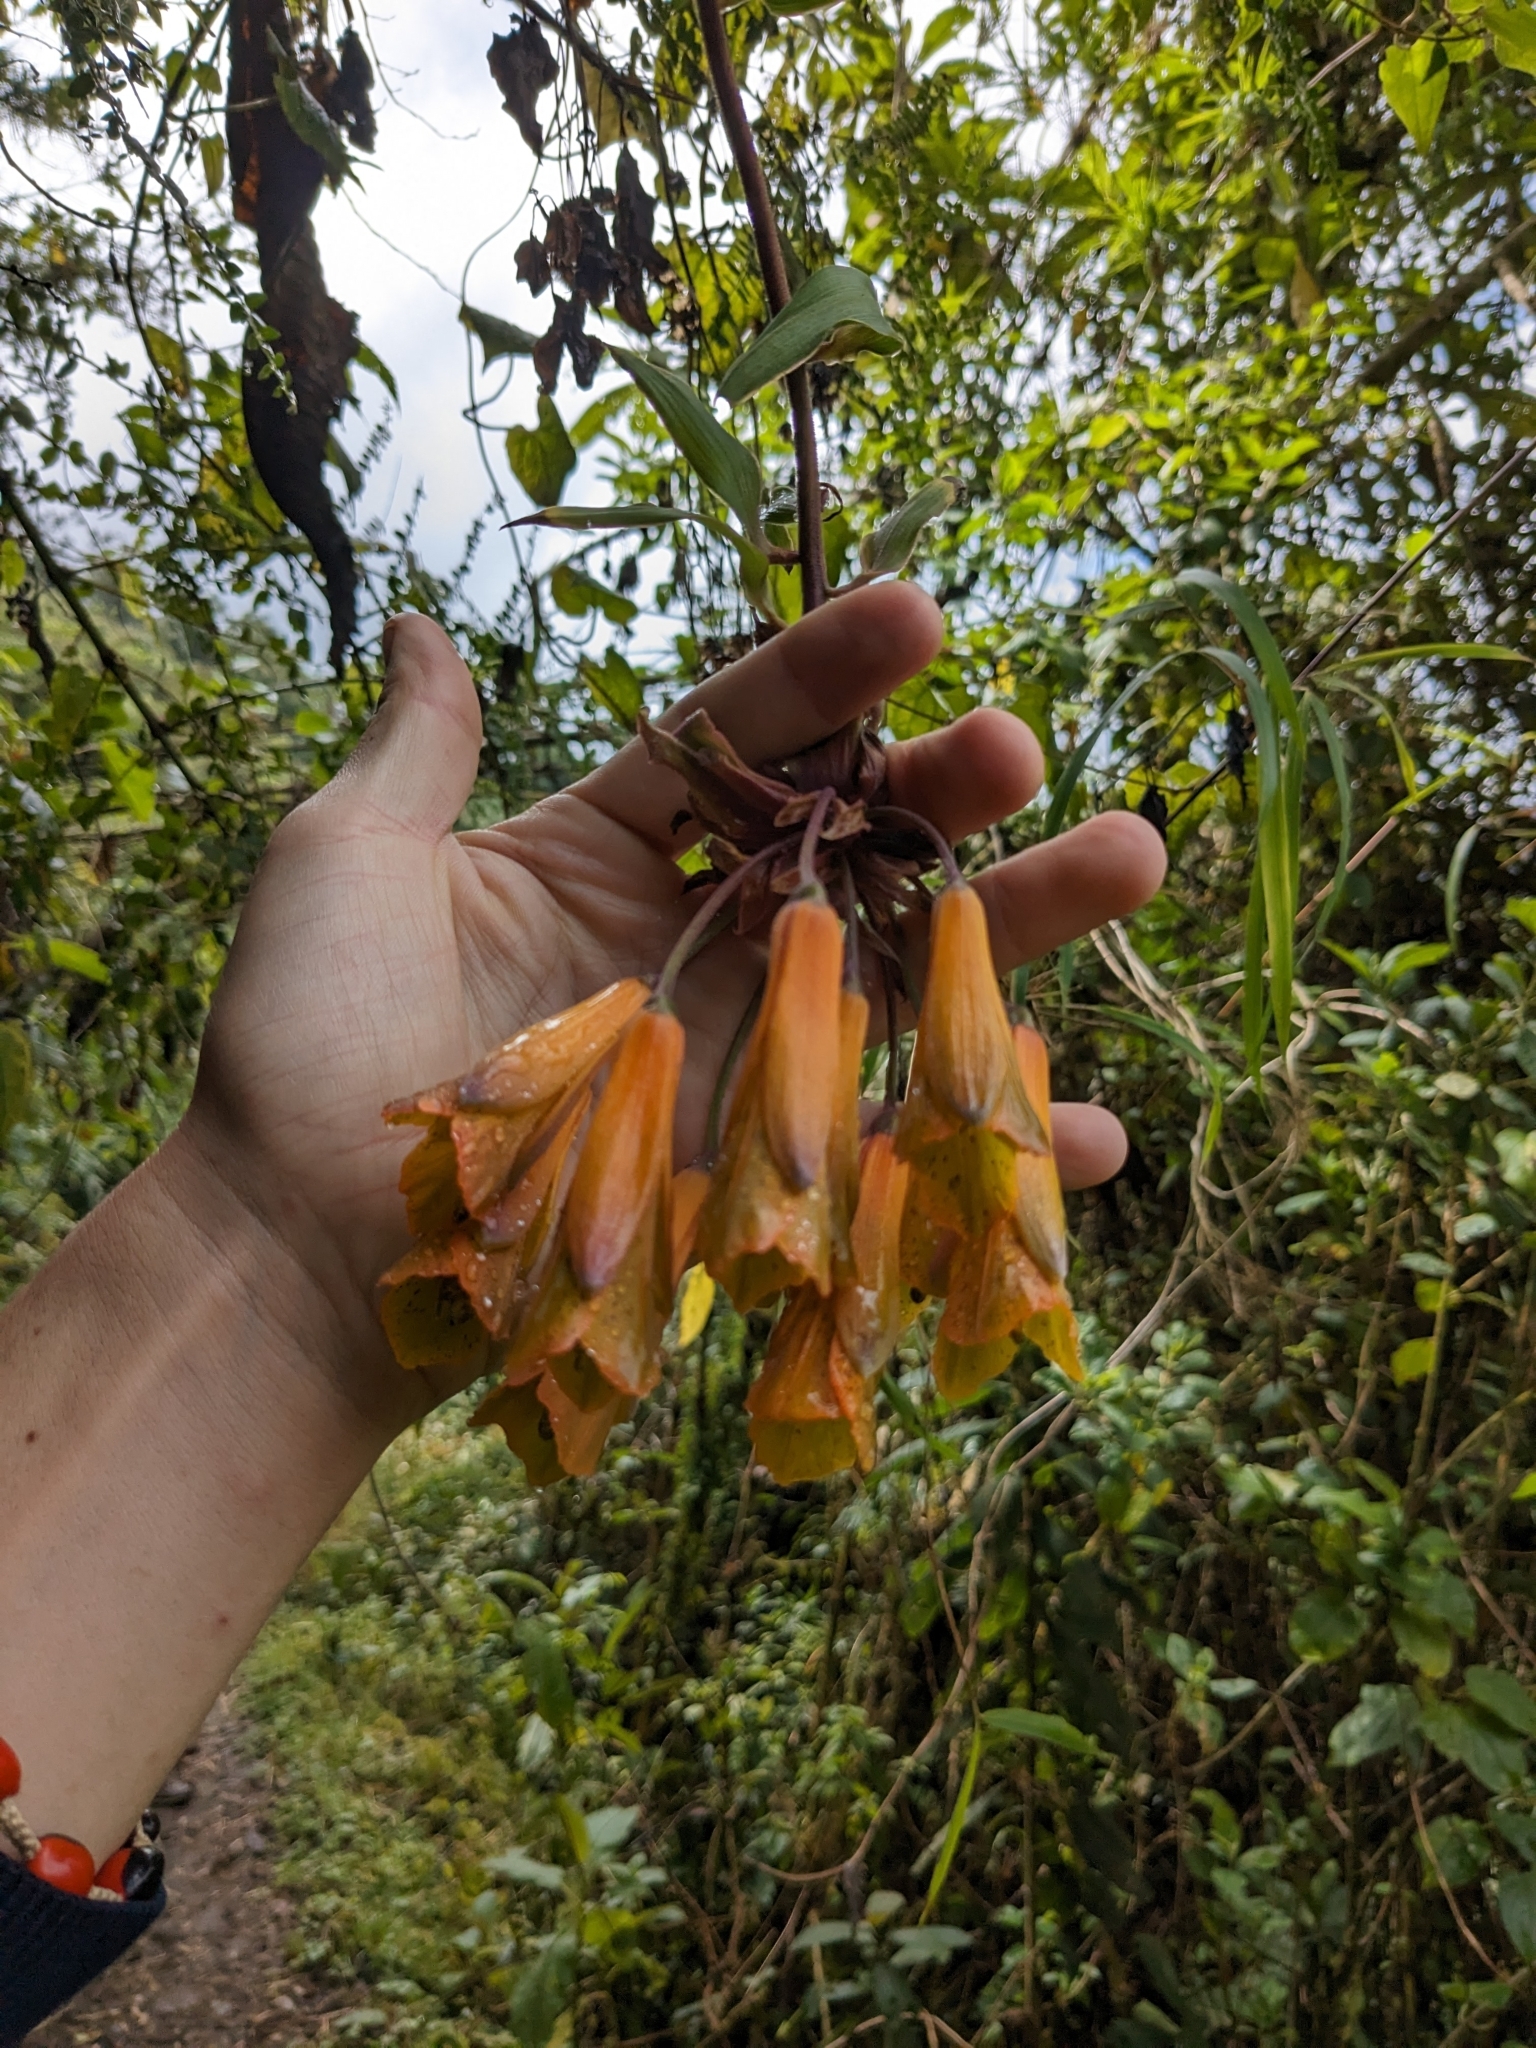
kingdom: Plantae
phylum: Tracheophyta
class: Liliopsida
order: Liliales
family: Alstroemeriaceae
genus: Bomarea
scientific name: Bomarea multiflora
